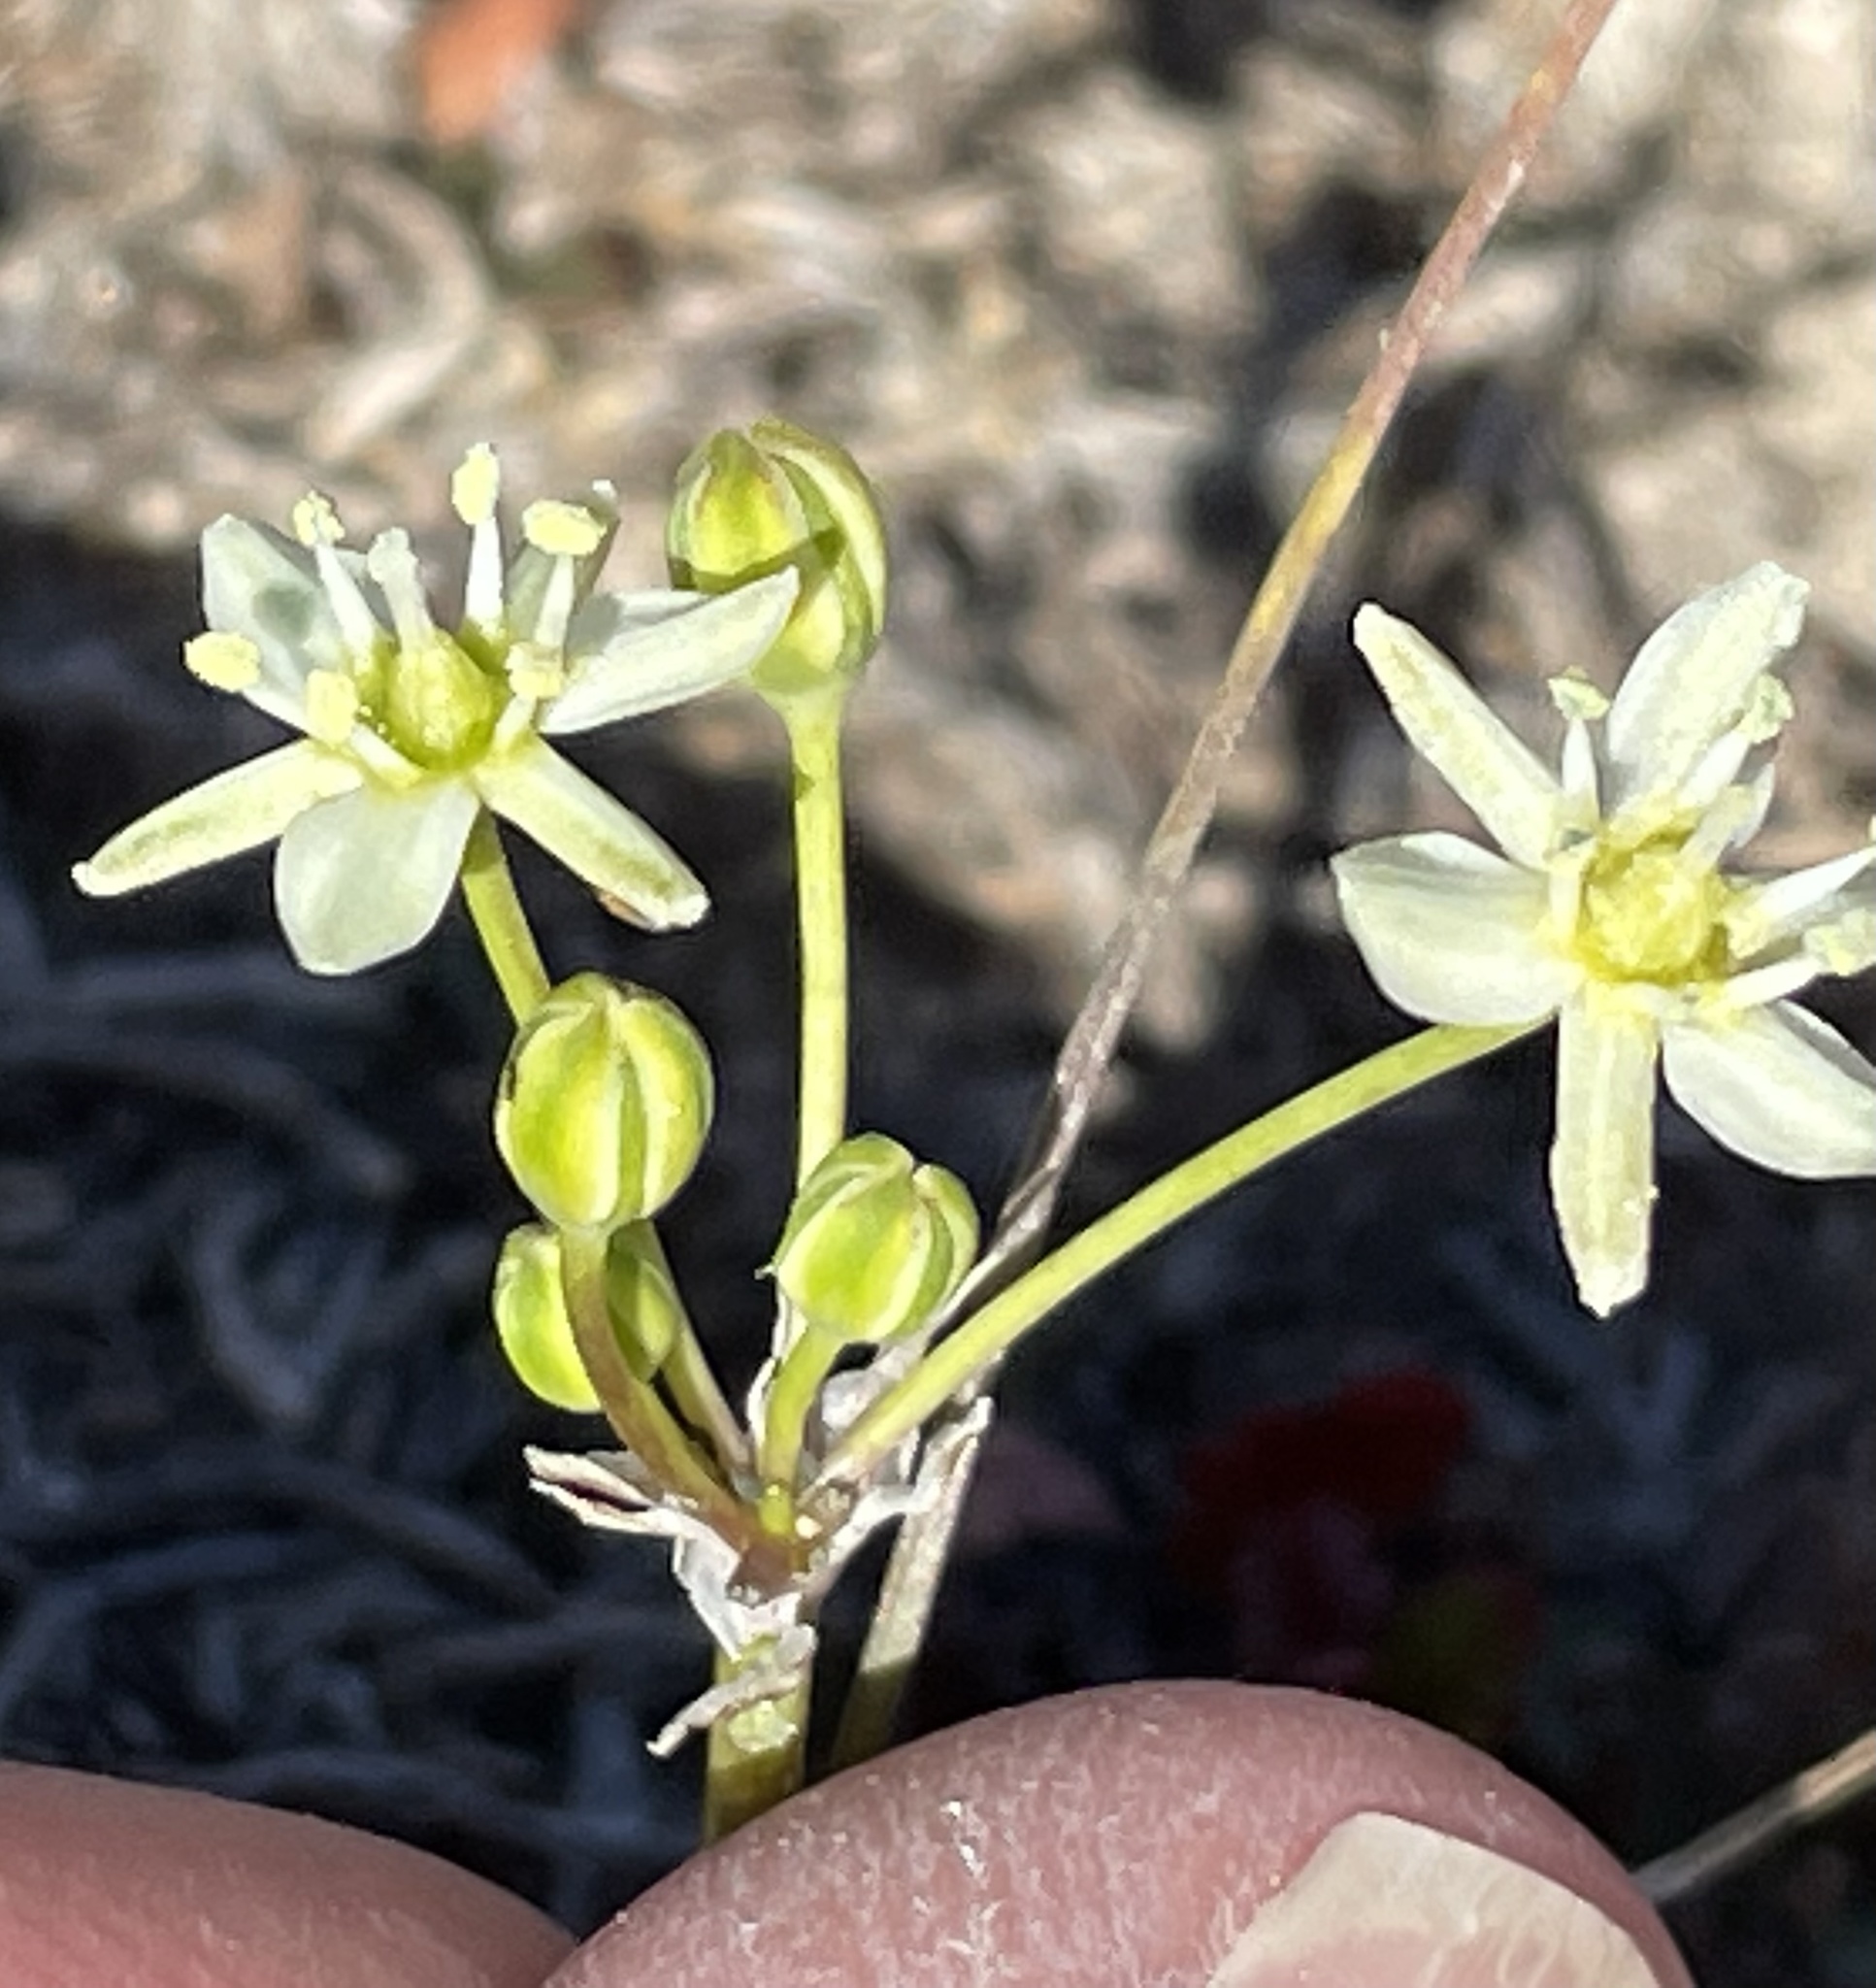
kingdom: Plantae
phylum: Tracheophyta
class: Liliopsida
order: Asparagales
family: Asparagaceae
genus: Muilla
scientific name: Muilla maritima
